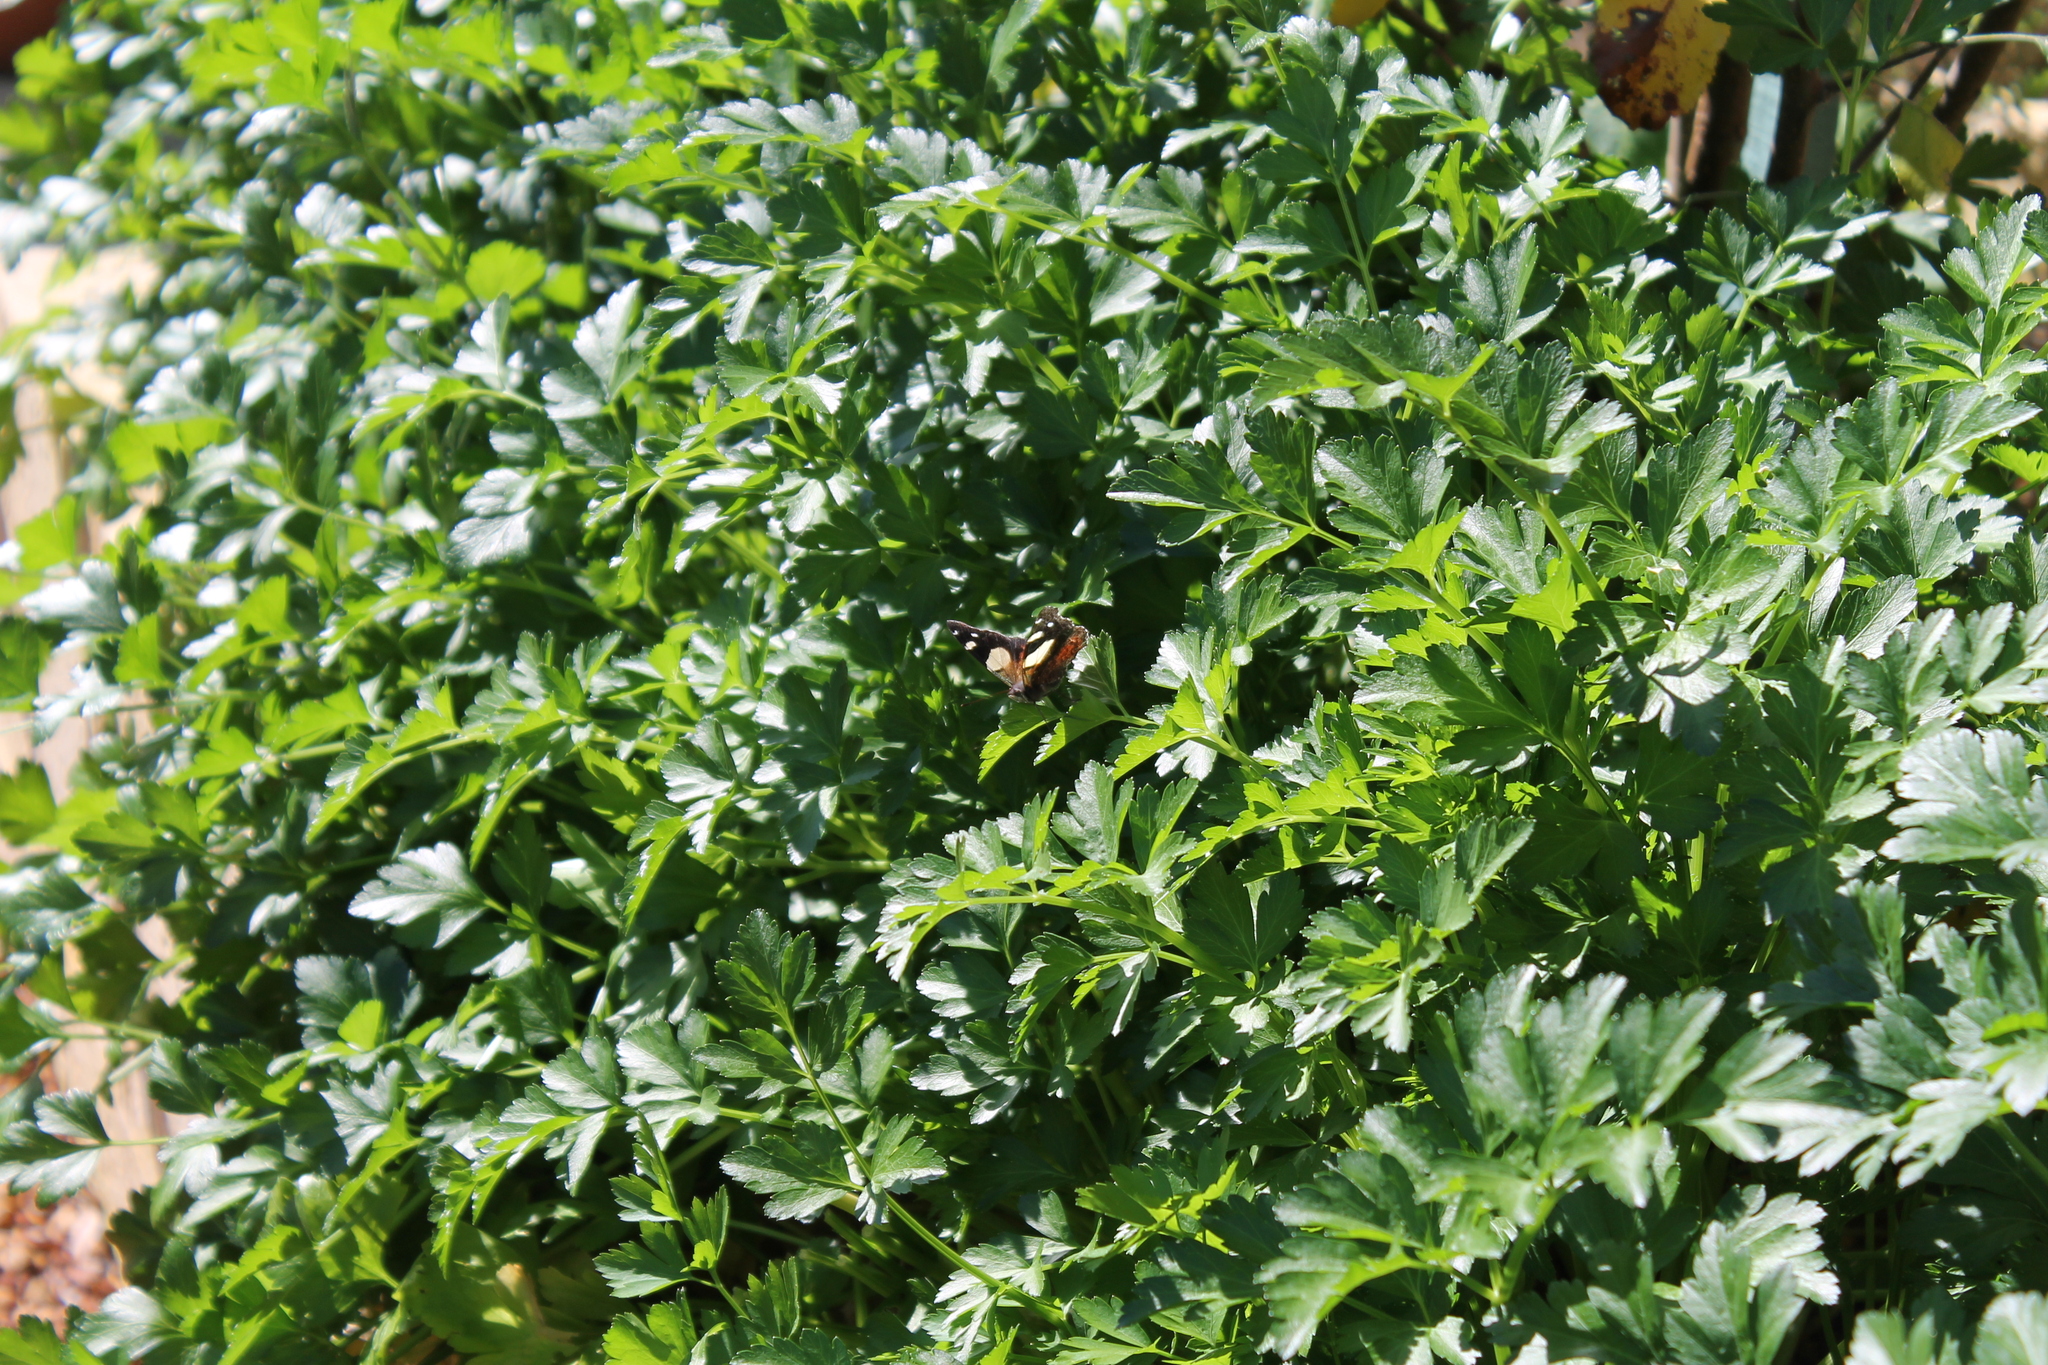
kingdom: Animalia
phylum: Arthropoda
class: Insecta
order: Lepidoptera
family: Nymphalidae
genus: Vanessa
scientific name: Vanessa itea
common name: Yellow admiral
